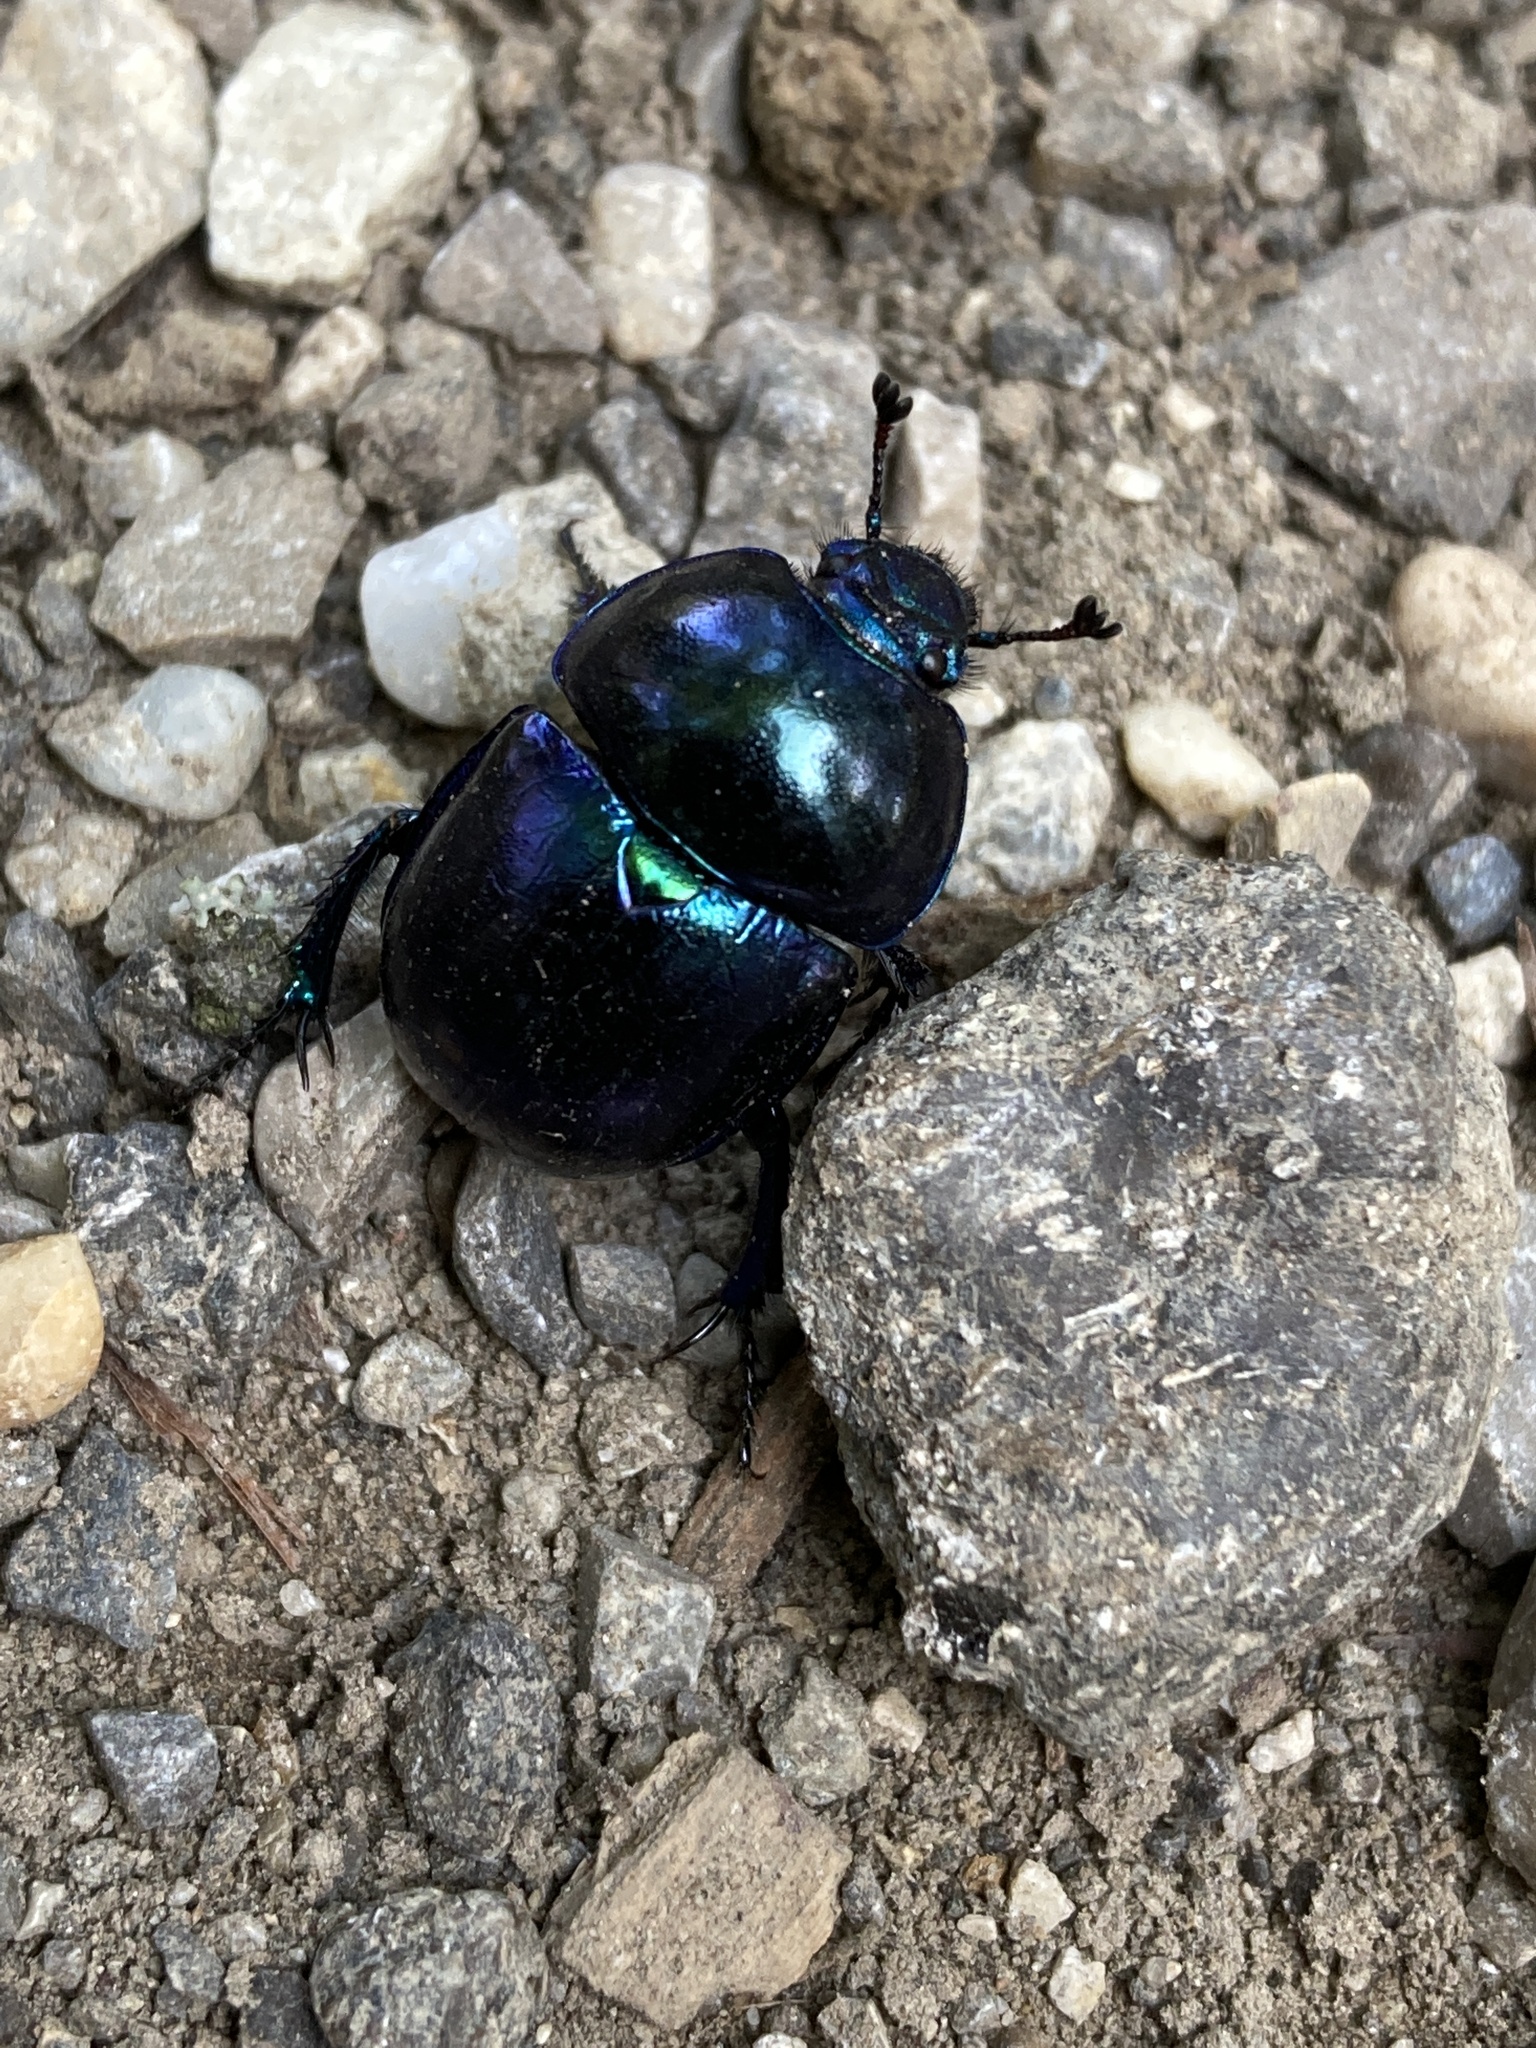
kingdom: Animalia
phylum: Arthropoda
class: Insecta
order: Coleoptera
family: Geotrupidae
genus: Trypocopris
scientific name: Trypocopris vernalis
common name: Spring dumbledor
